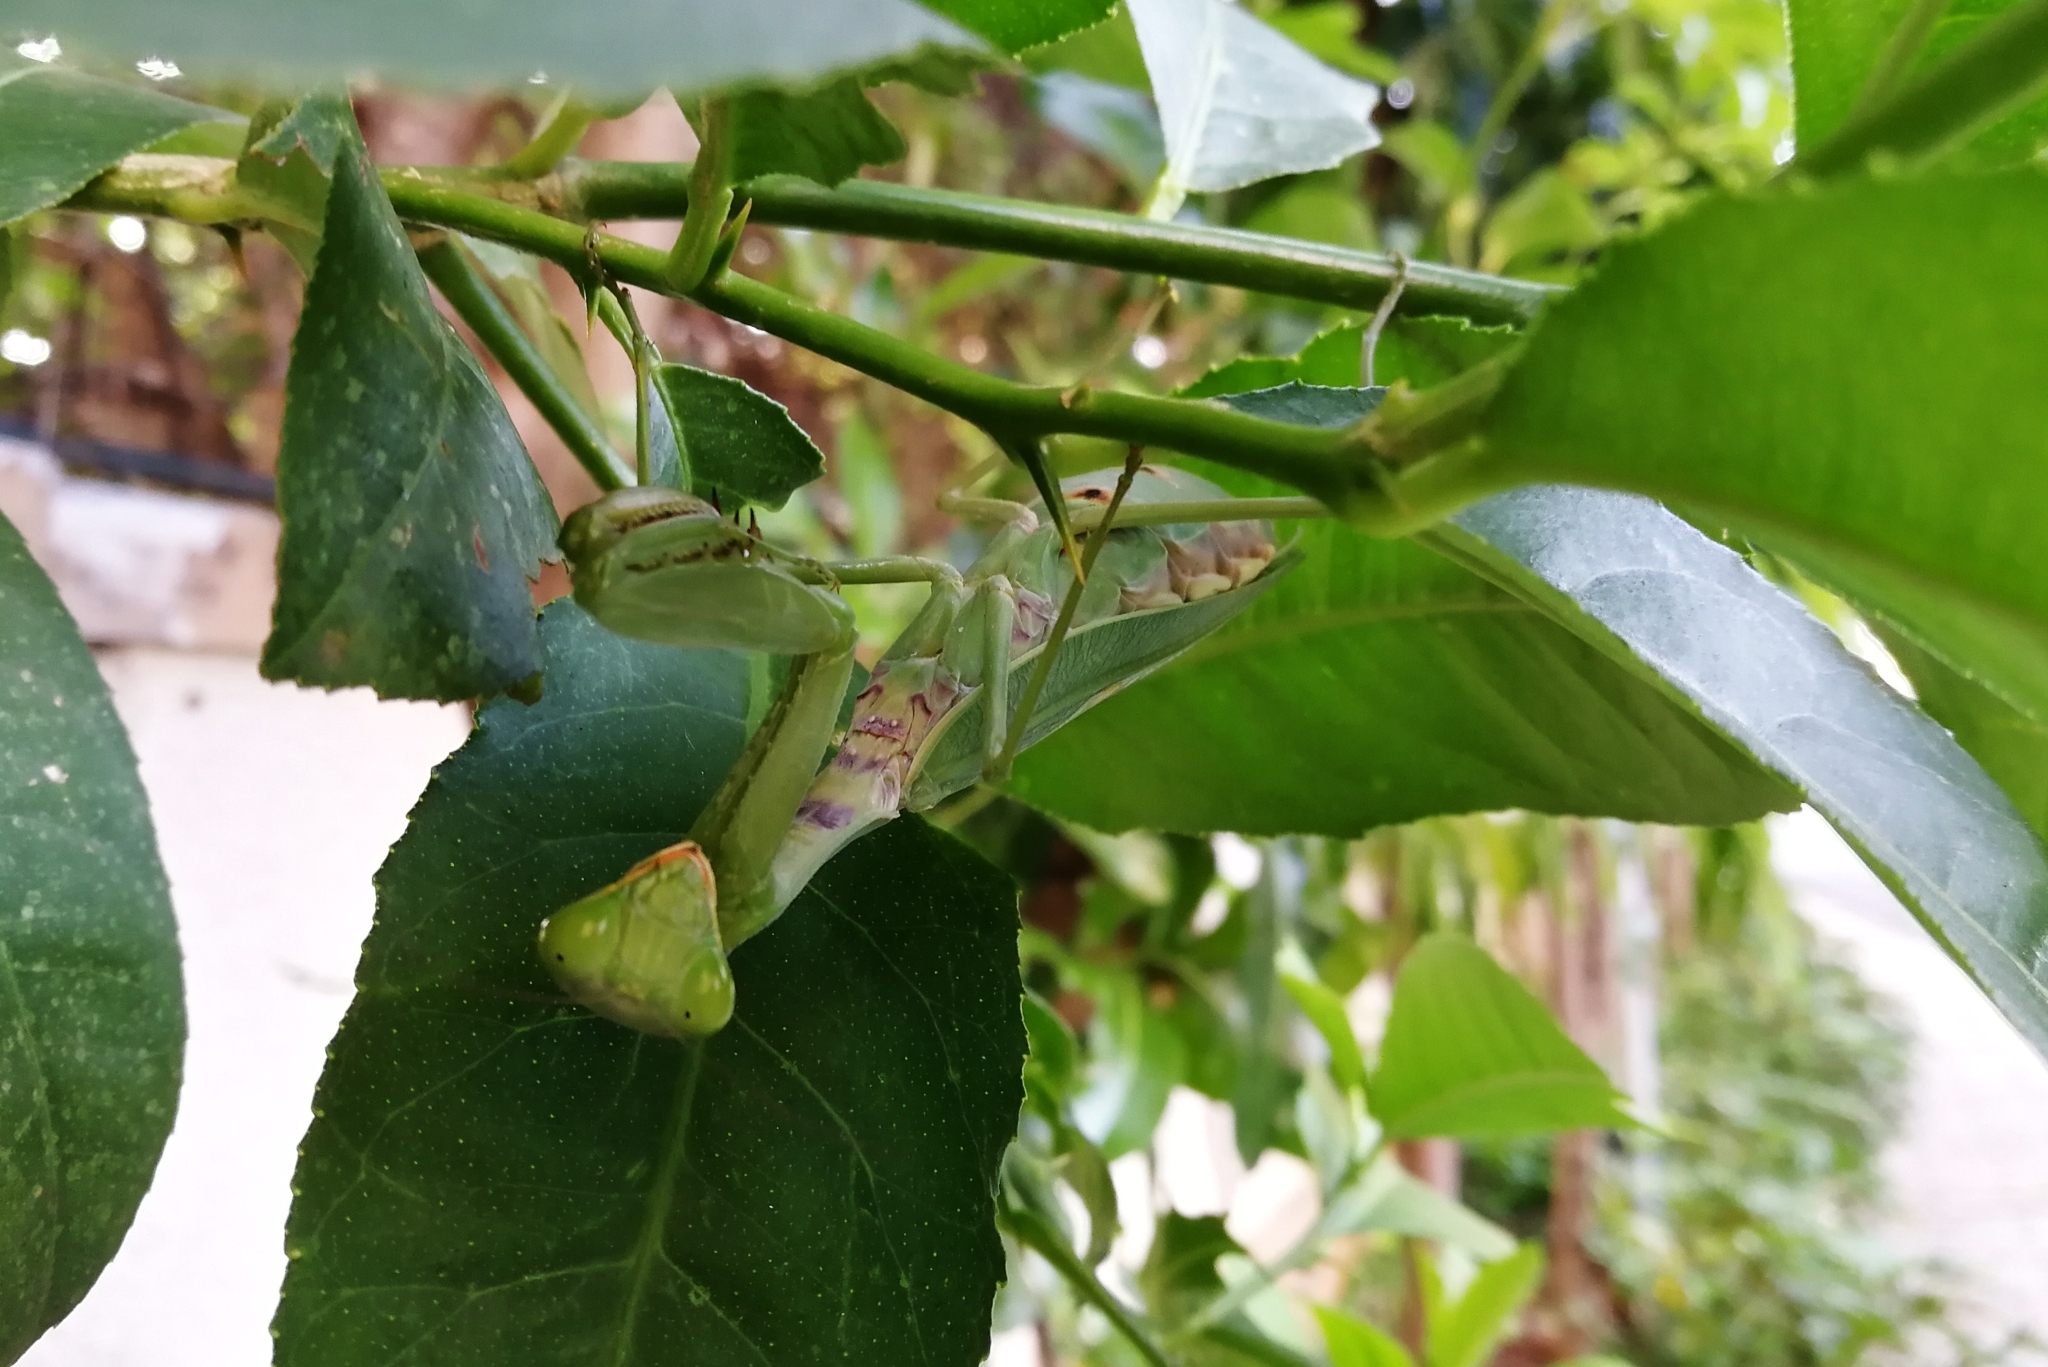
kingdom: Animalia
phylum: Arthropoda
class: Insecta
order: Mantodea
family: Mantidae
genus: Hierodula
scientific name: Hierodula tenuidentata
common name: Giant asian mantis
